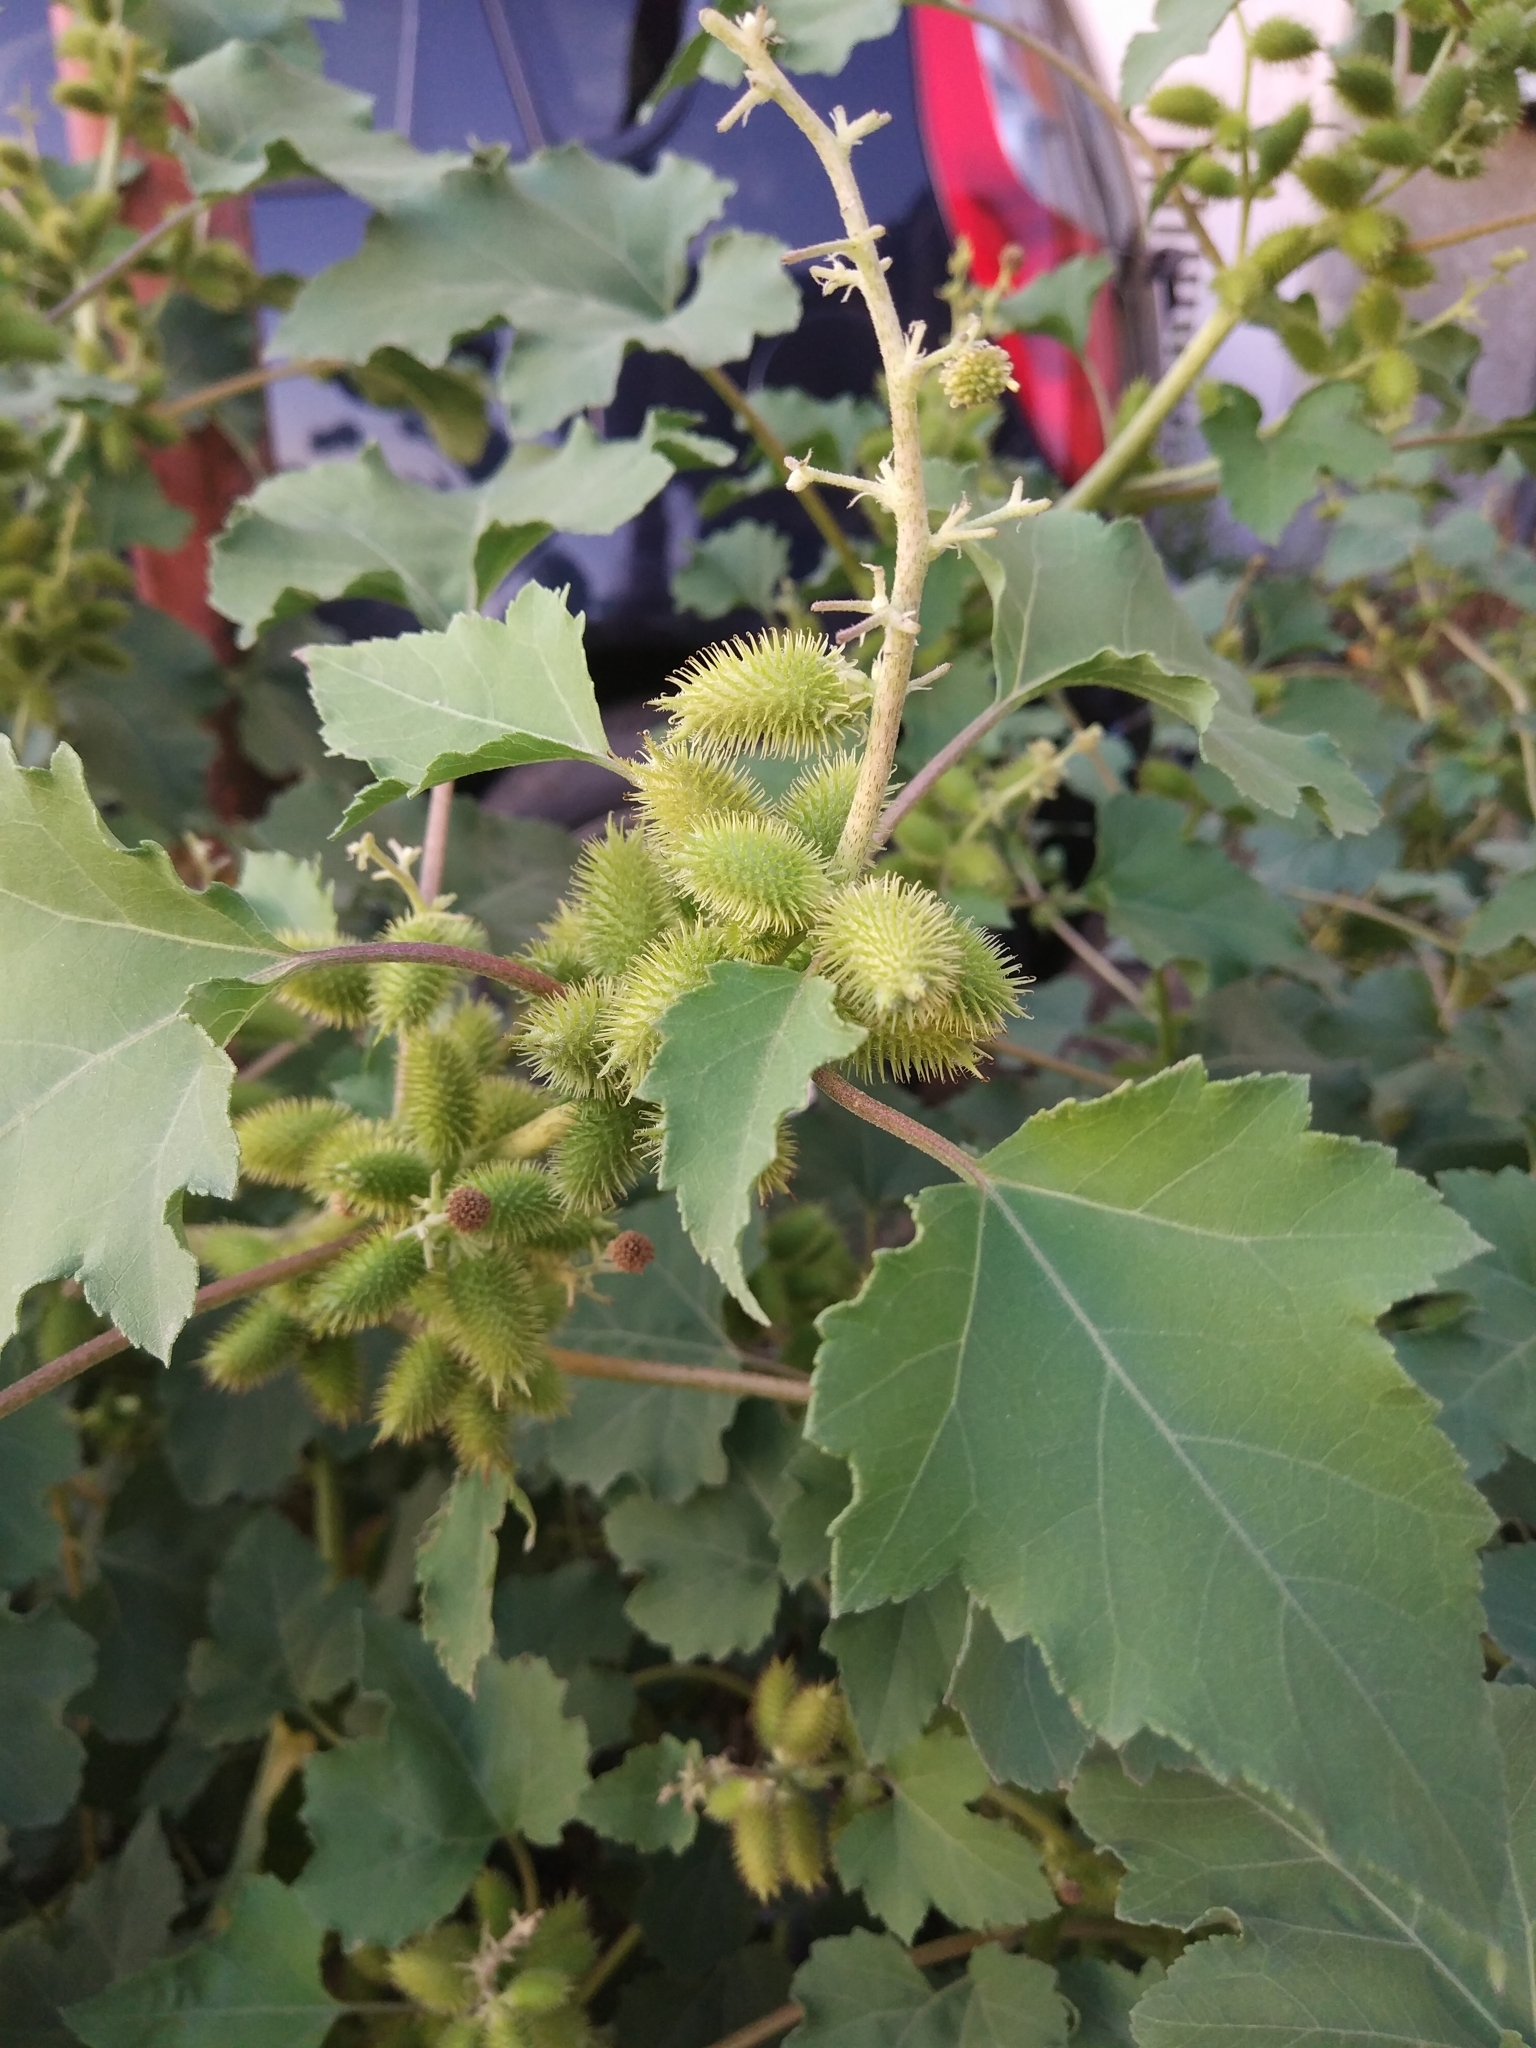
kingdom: Plantae
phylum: Tracheophyta
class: Magnoliopsida
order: Asterales
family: Asteraceae
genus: Xanthium
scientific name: Xanthium strumarium
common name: Rough cocklebur
